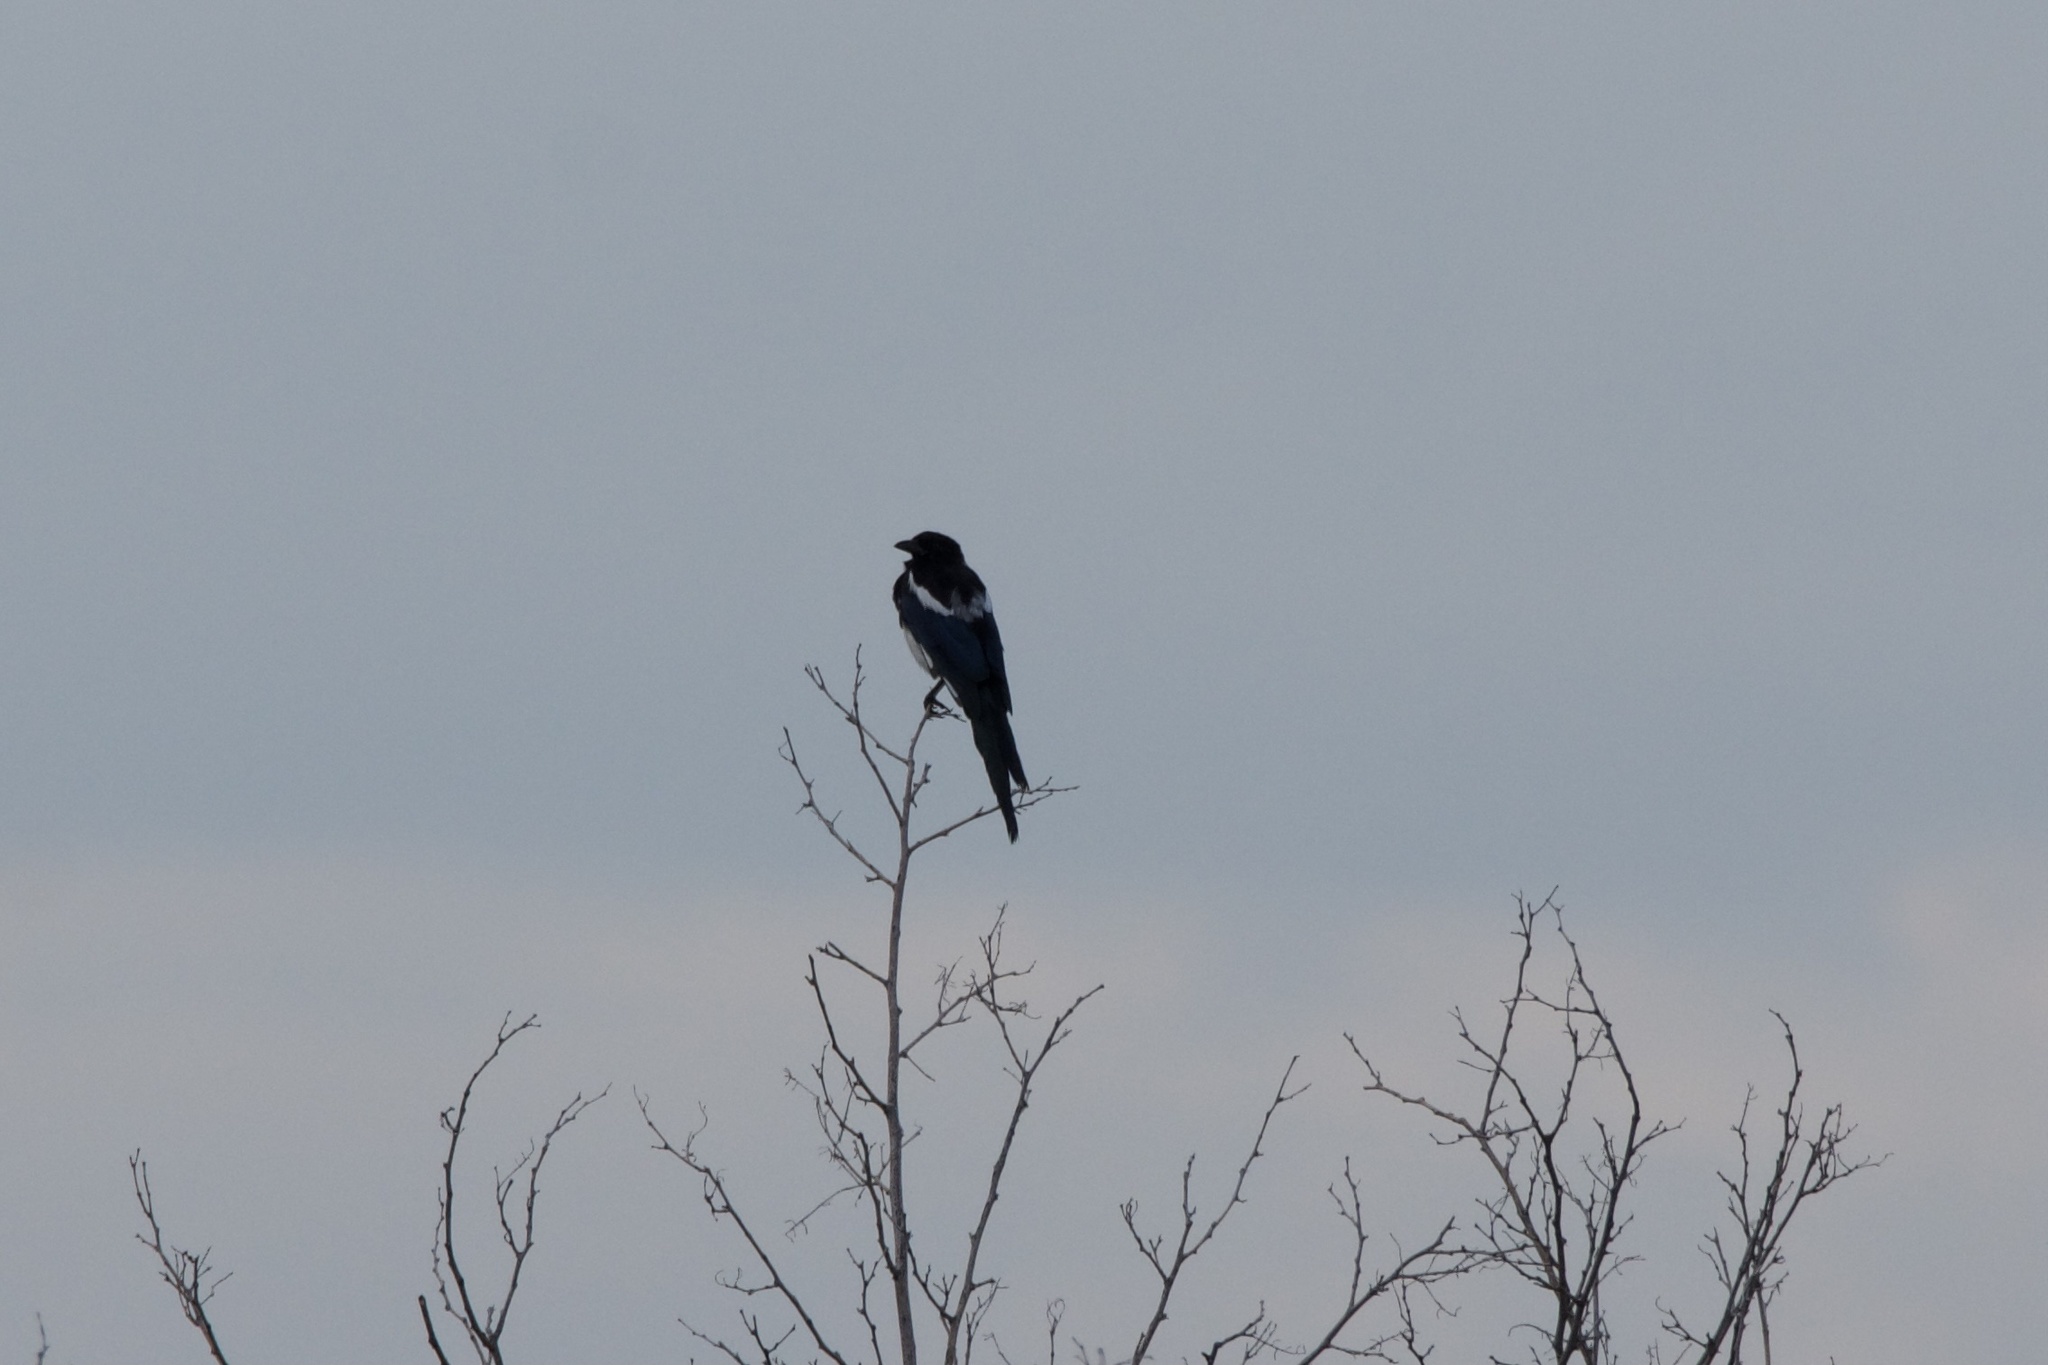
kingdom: Animalia
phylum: Chordata
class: Aves
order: Passeriformes
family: Corvidae
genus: Pica
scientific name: Pica hudsonia
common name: Black-billed magpie
